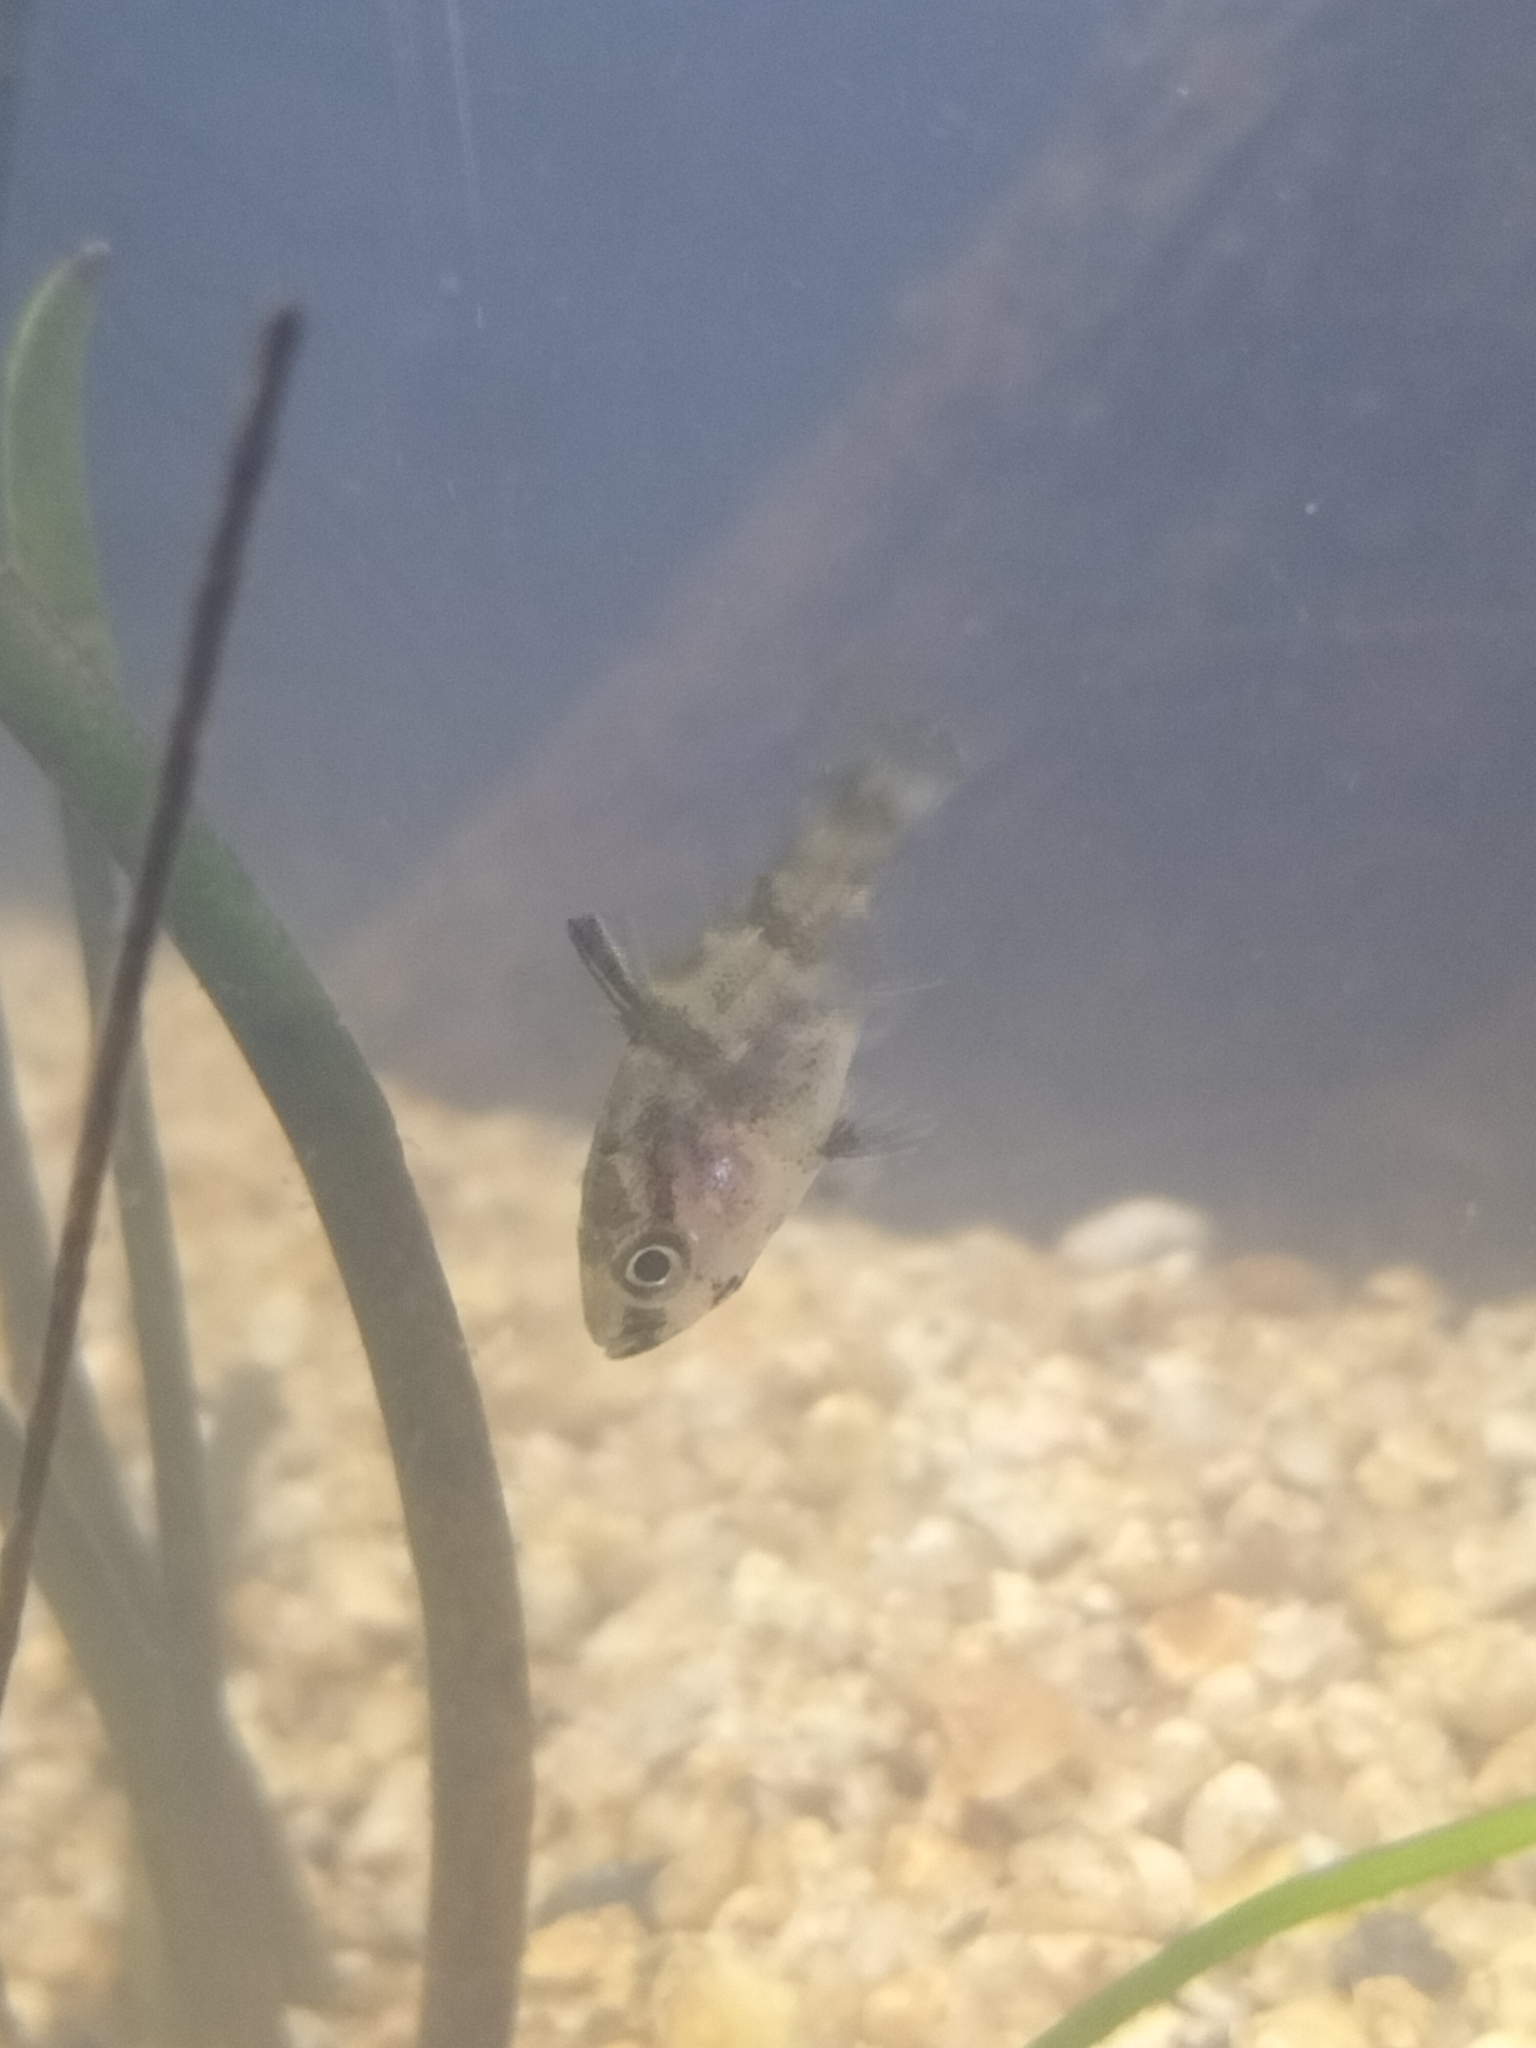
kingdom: Animalia
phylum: Chordata
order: Perciformes
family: Apogonidae
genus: Glossamia
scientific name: Glossamia aprion
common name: Mouth almighty
